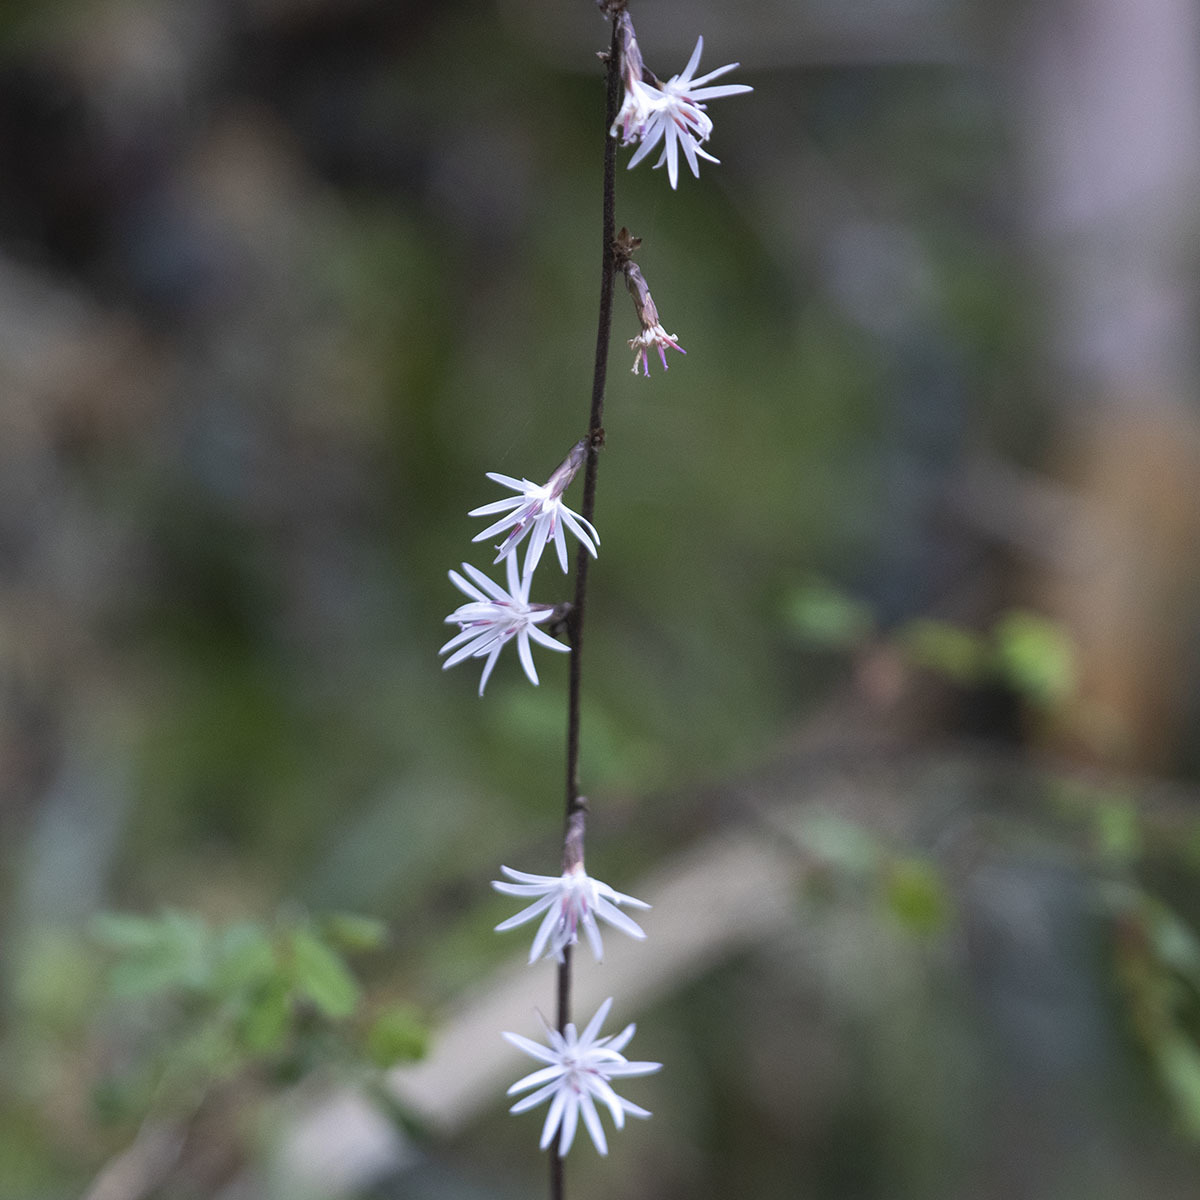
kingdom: Plantae
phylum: Tracheophyta
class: Magnoliopsida
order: Asterales
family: Asteraceae
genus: Ainsliaea
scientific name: Ainsliaea latifolia
